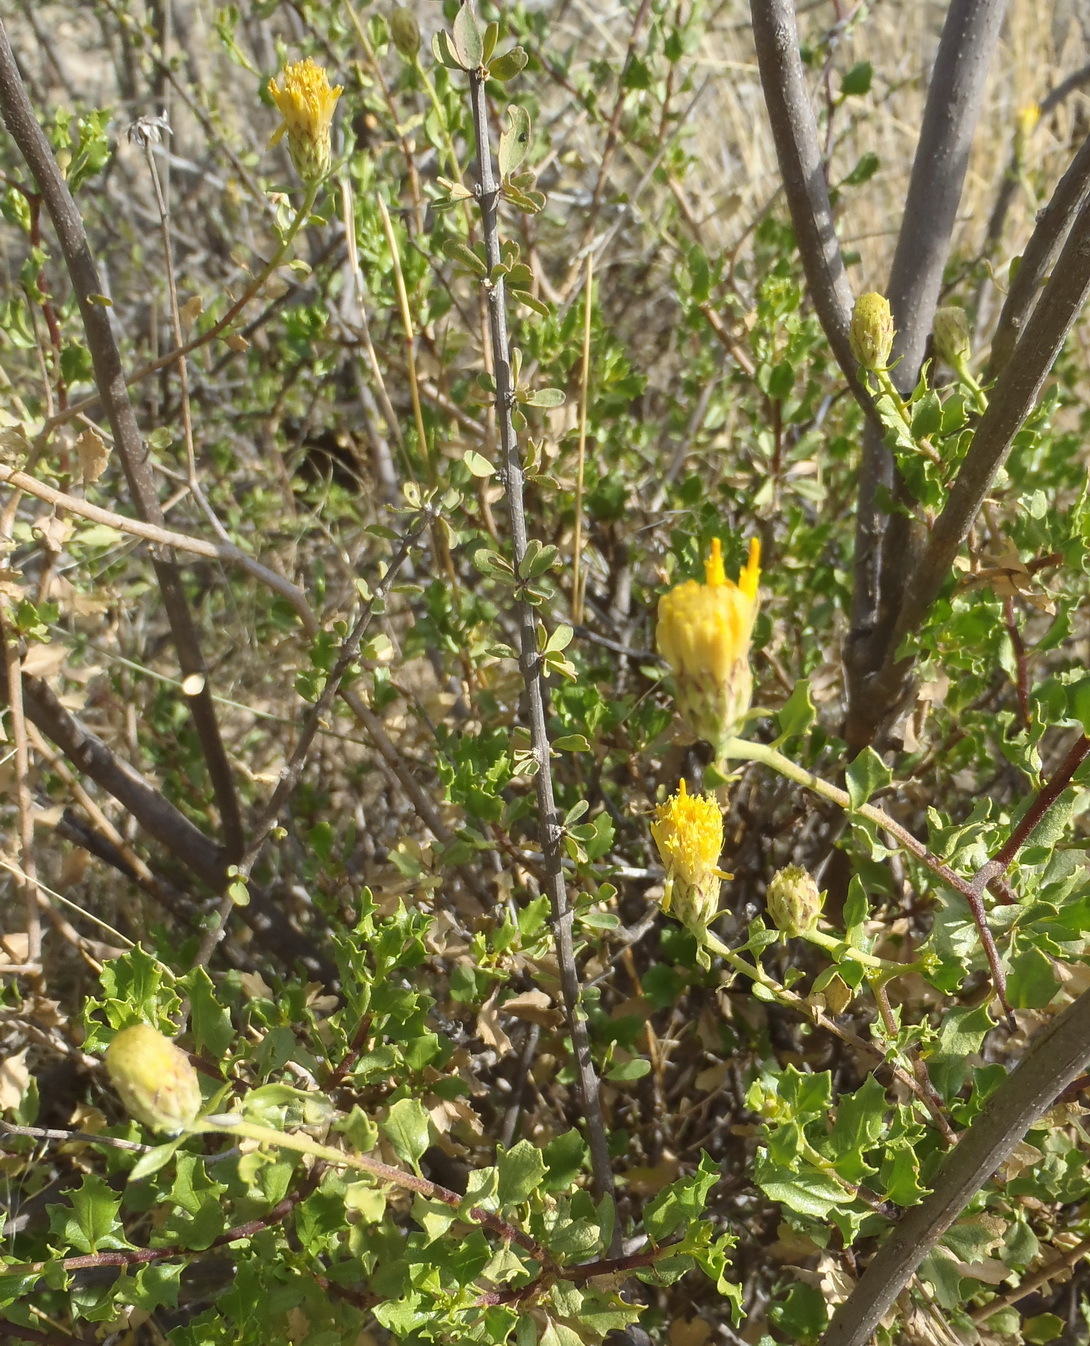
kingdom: Plantae
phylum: Tracheophyta
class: Magnoliopsida
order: Asterales
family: Asteraceae
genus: Pegolettia
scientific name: Pegolettia baccaridifolia
